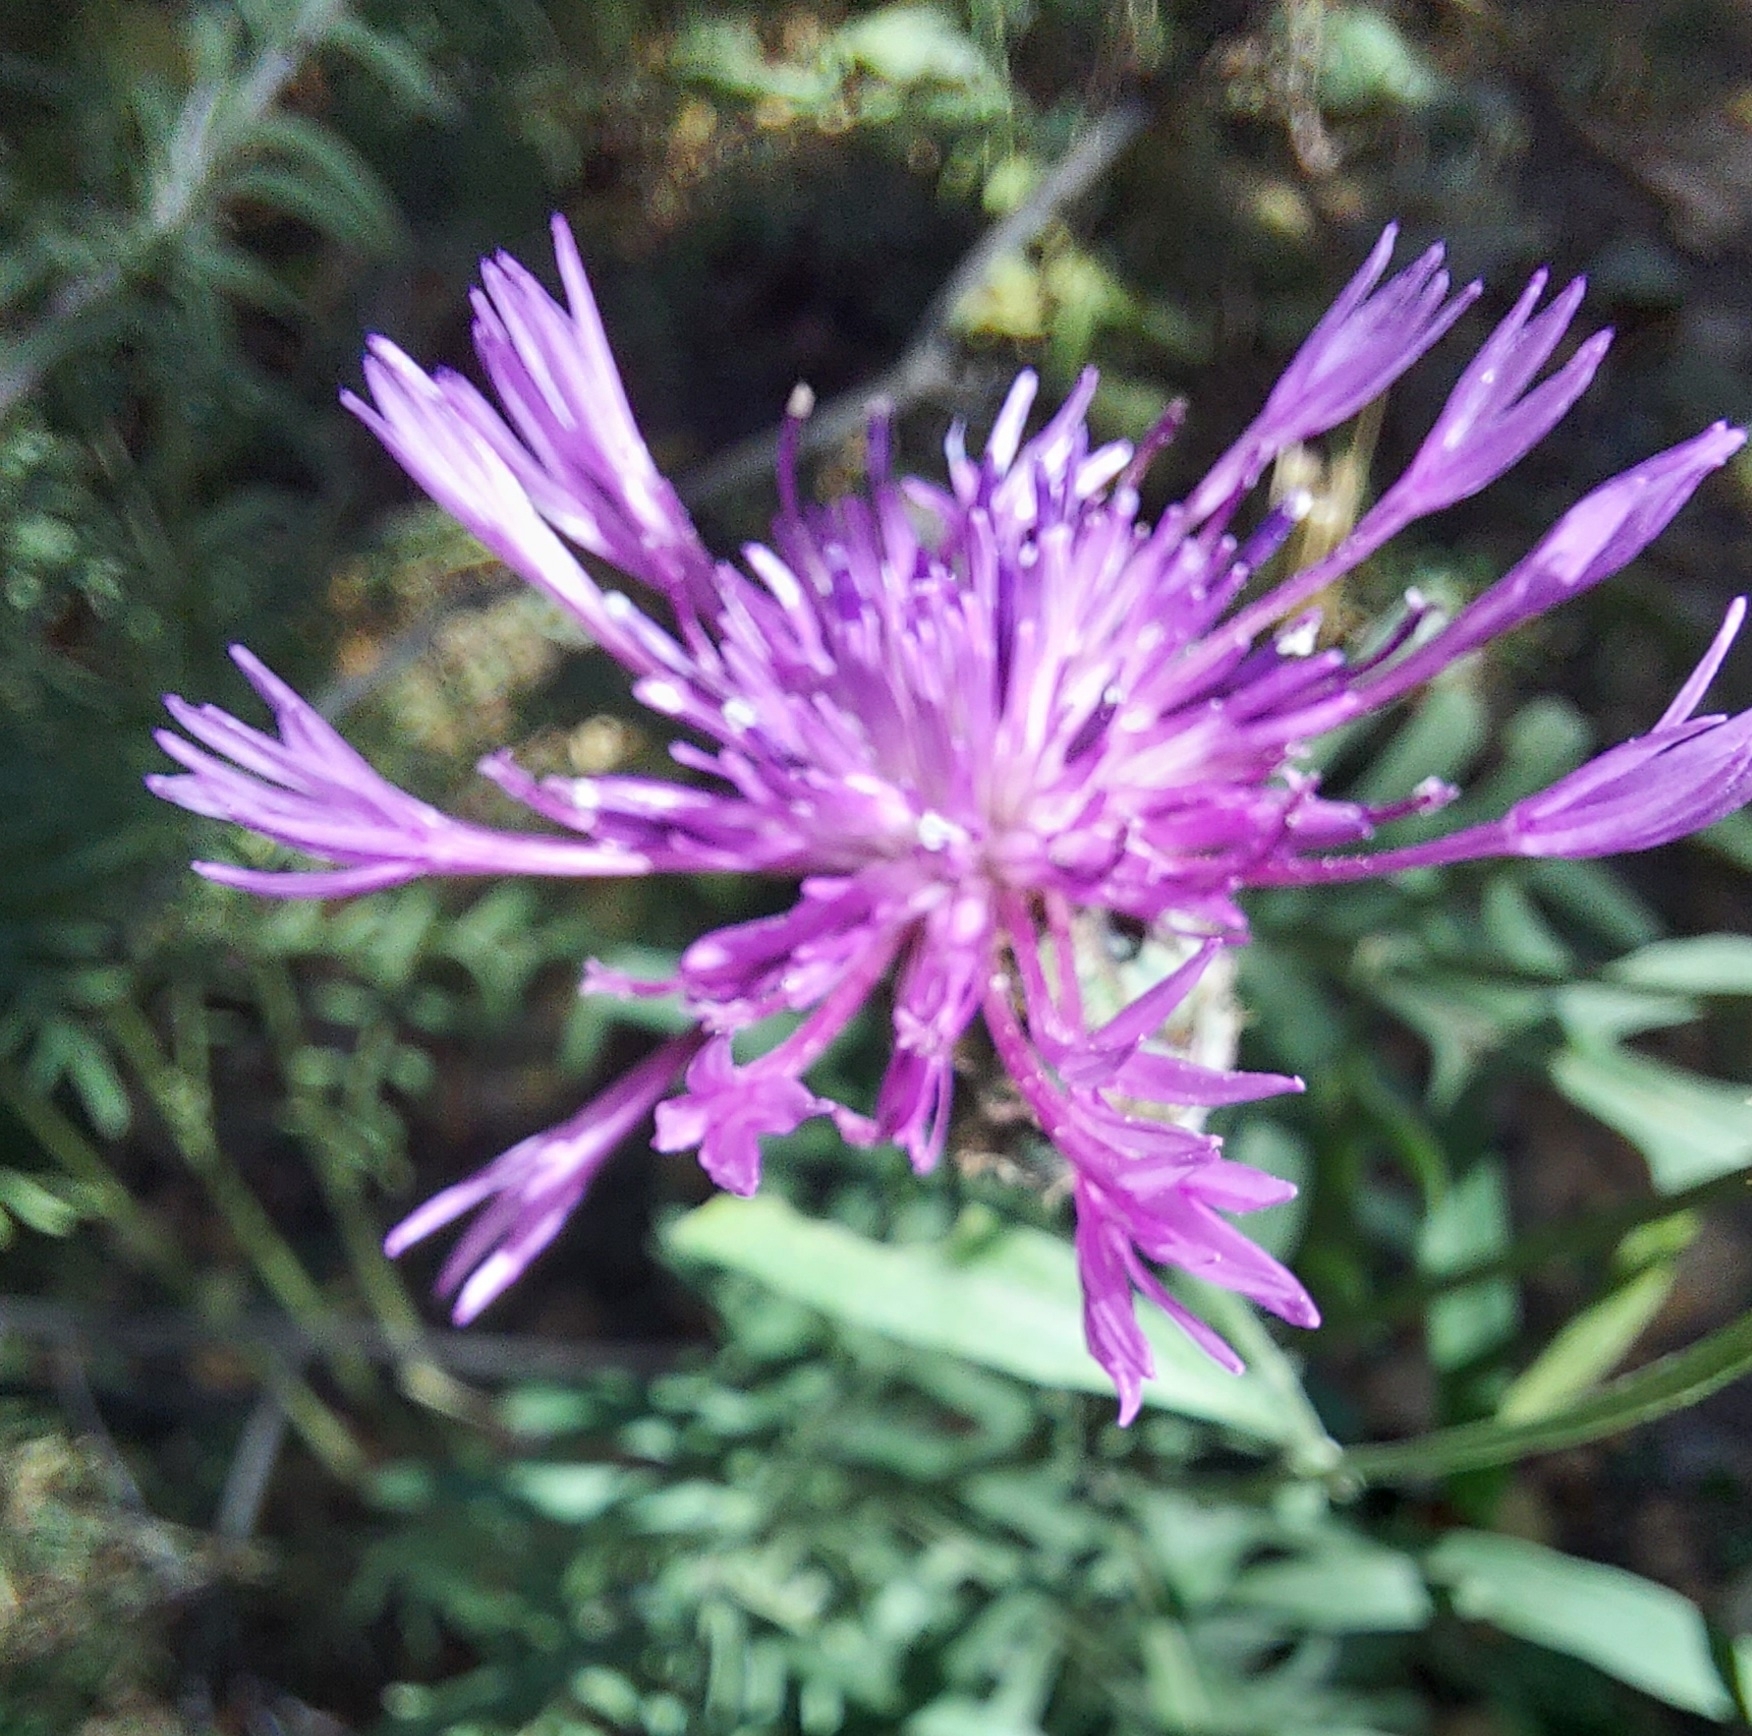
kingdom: Plantae
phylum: Tracheophyta
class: Magnoliopsida
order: Asterales
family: Asteraceae
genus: Centaurea
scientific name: Centaurea scabiosa
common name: Greater knapweed
